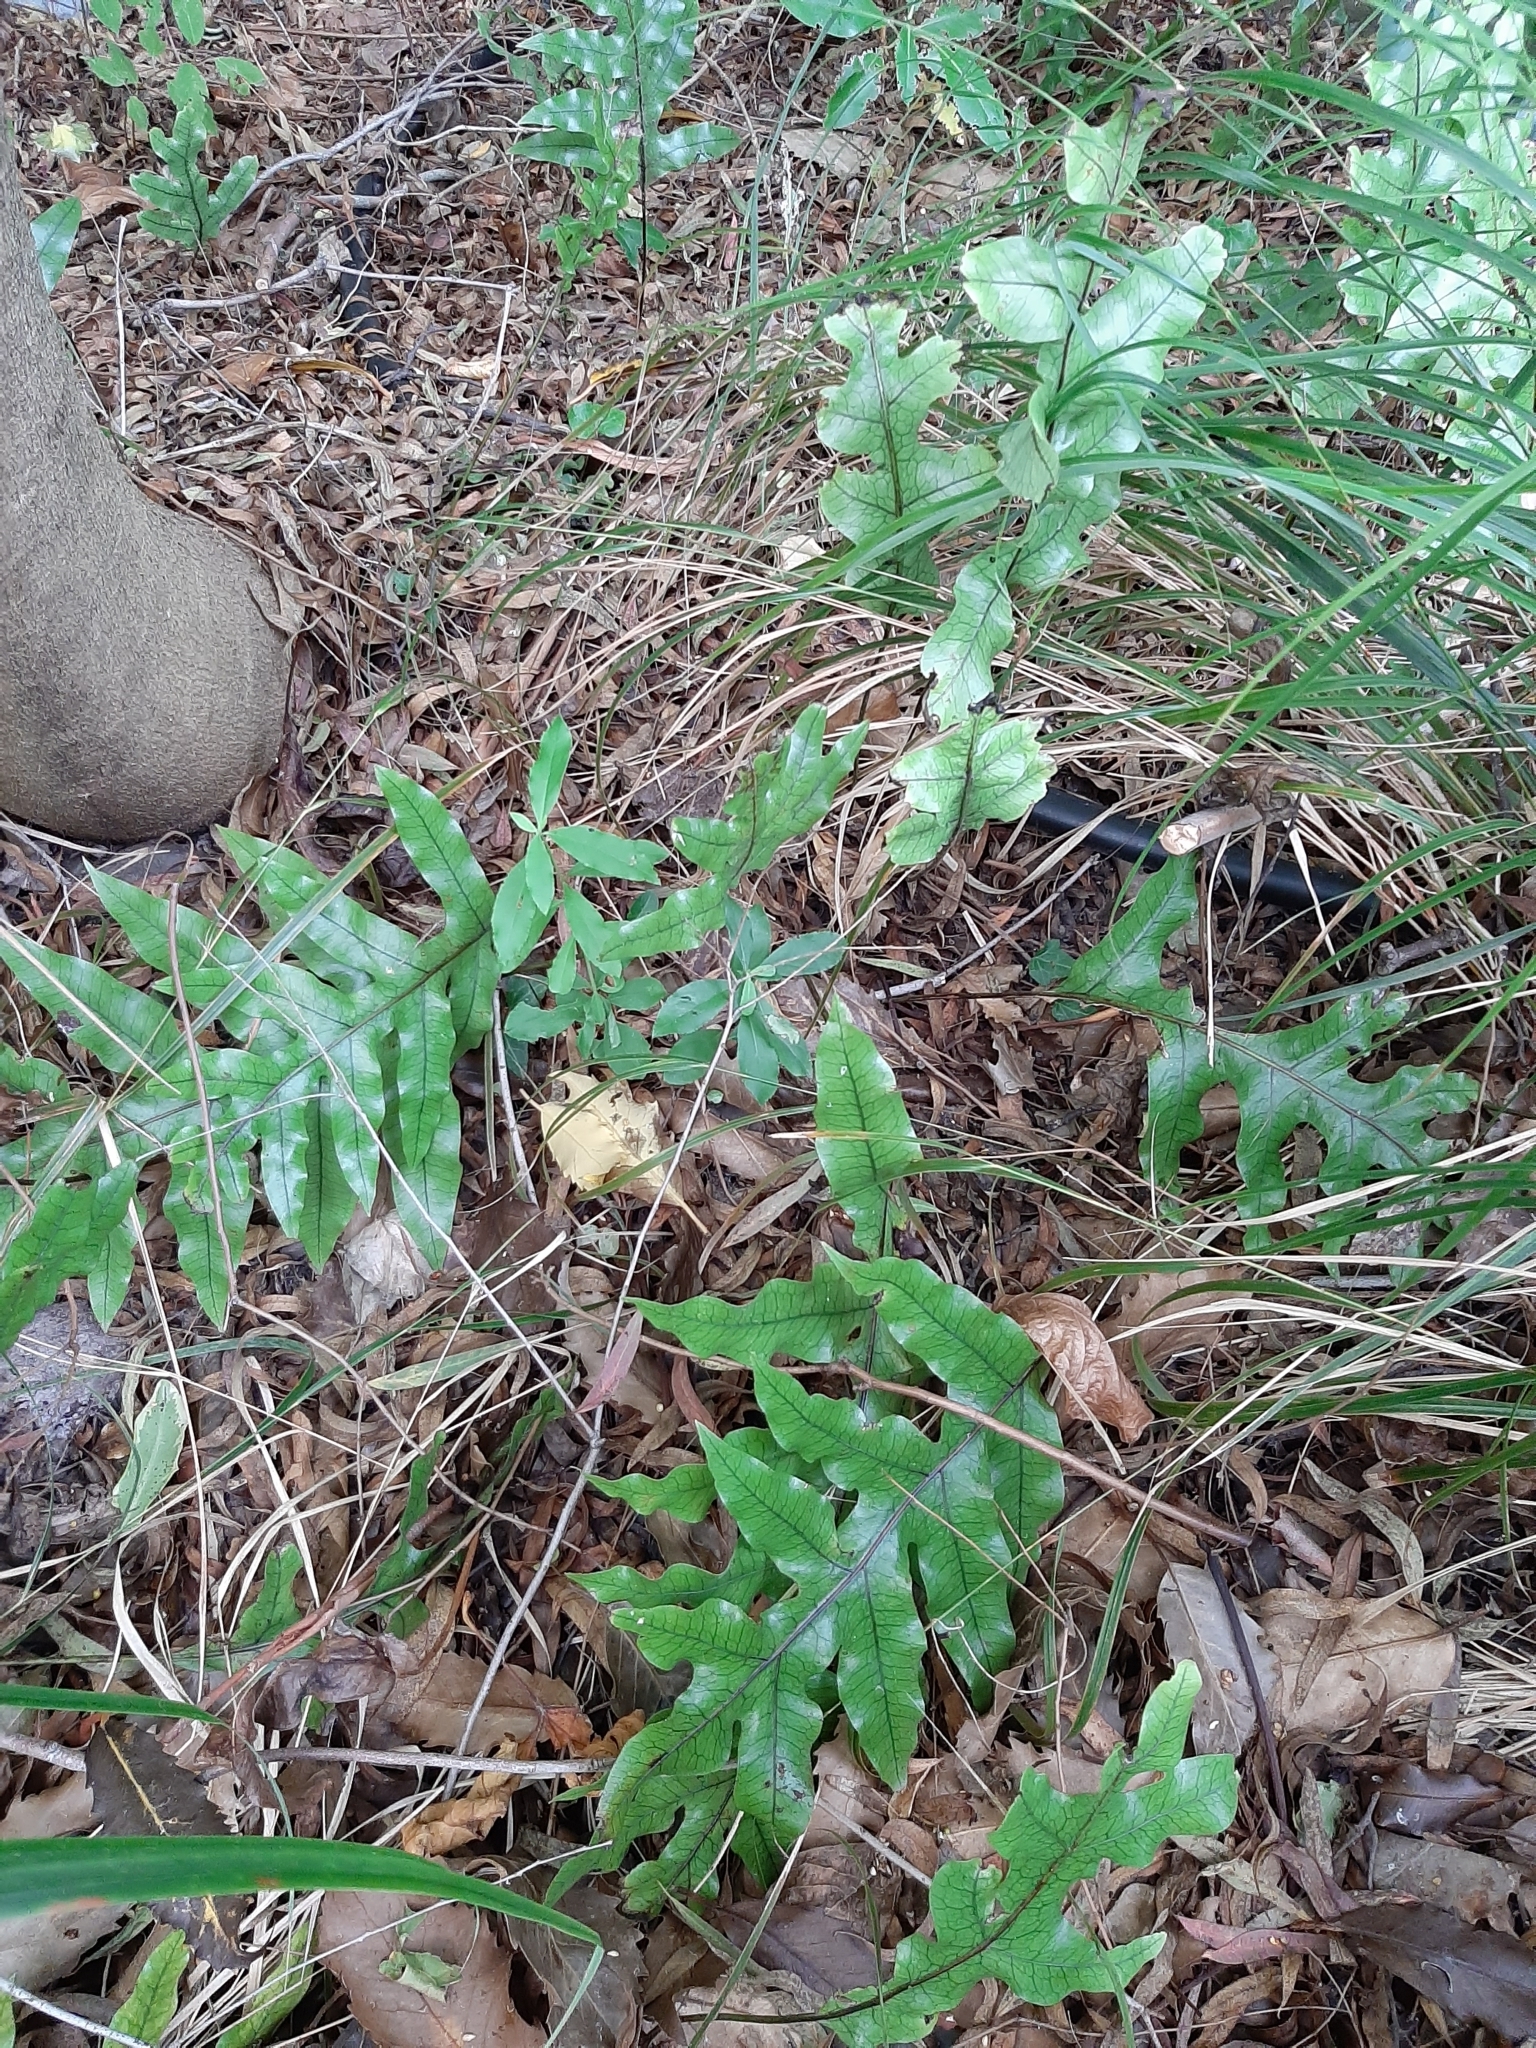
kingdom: Plantae
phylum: Tracheophyta
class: Polypodiopsida
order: Polypodiales
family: Polypodiaceae
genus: Lecanopteris
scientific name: Lecanopteris pustulata
